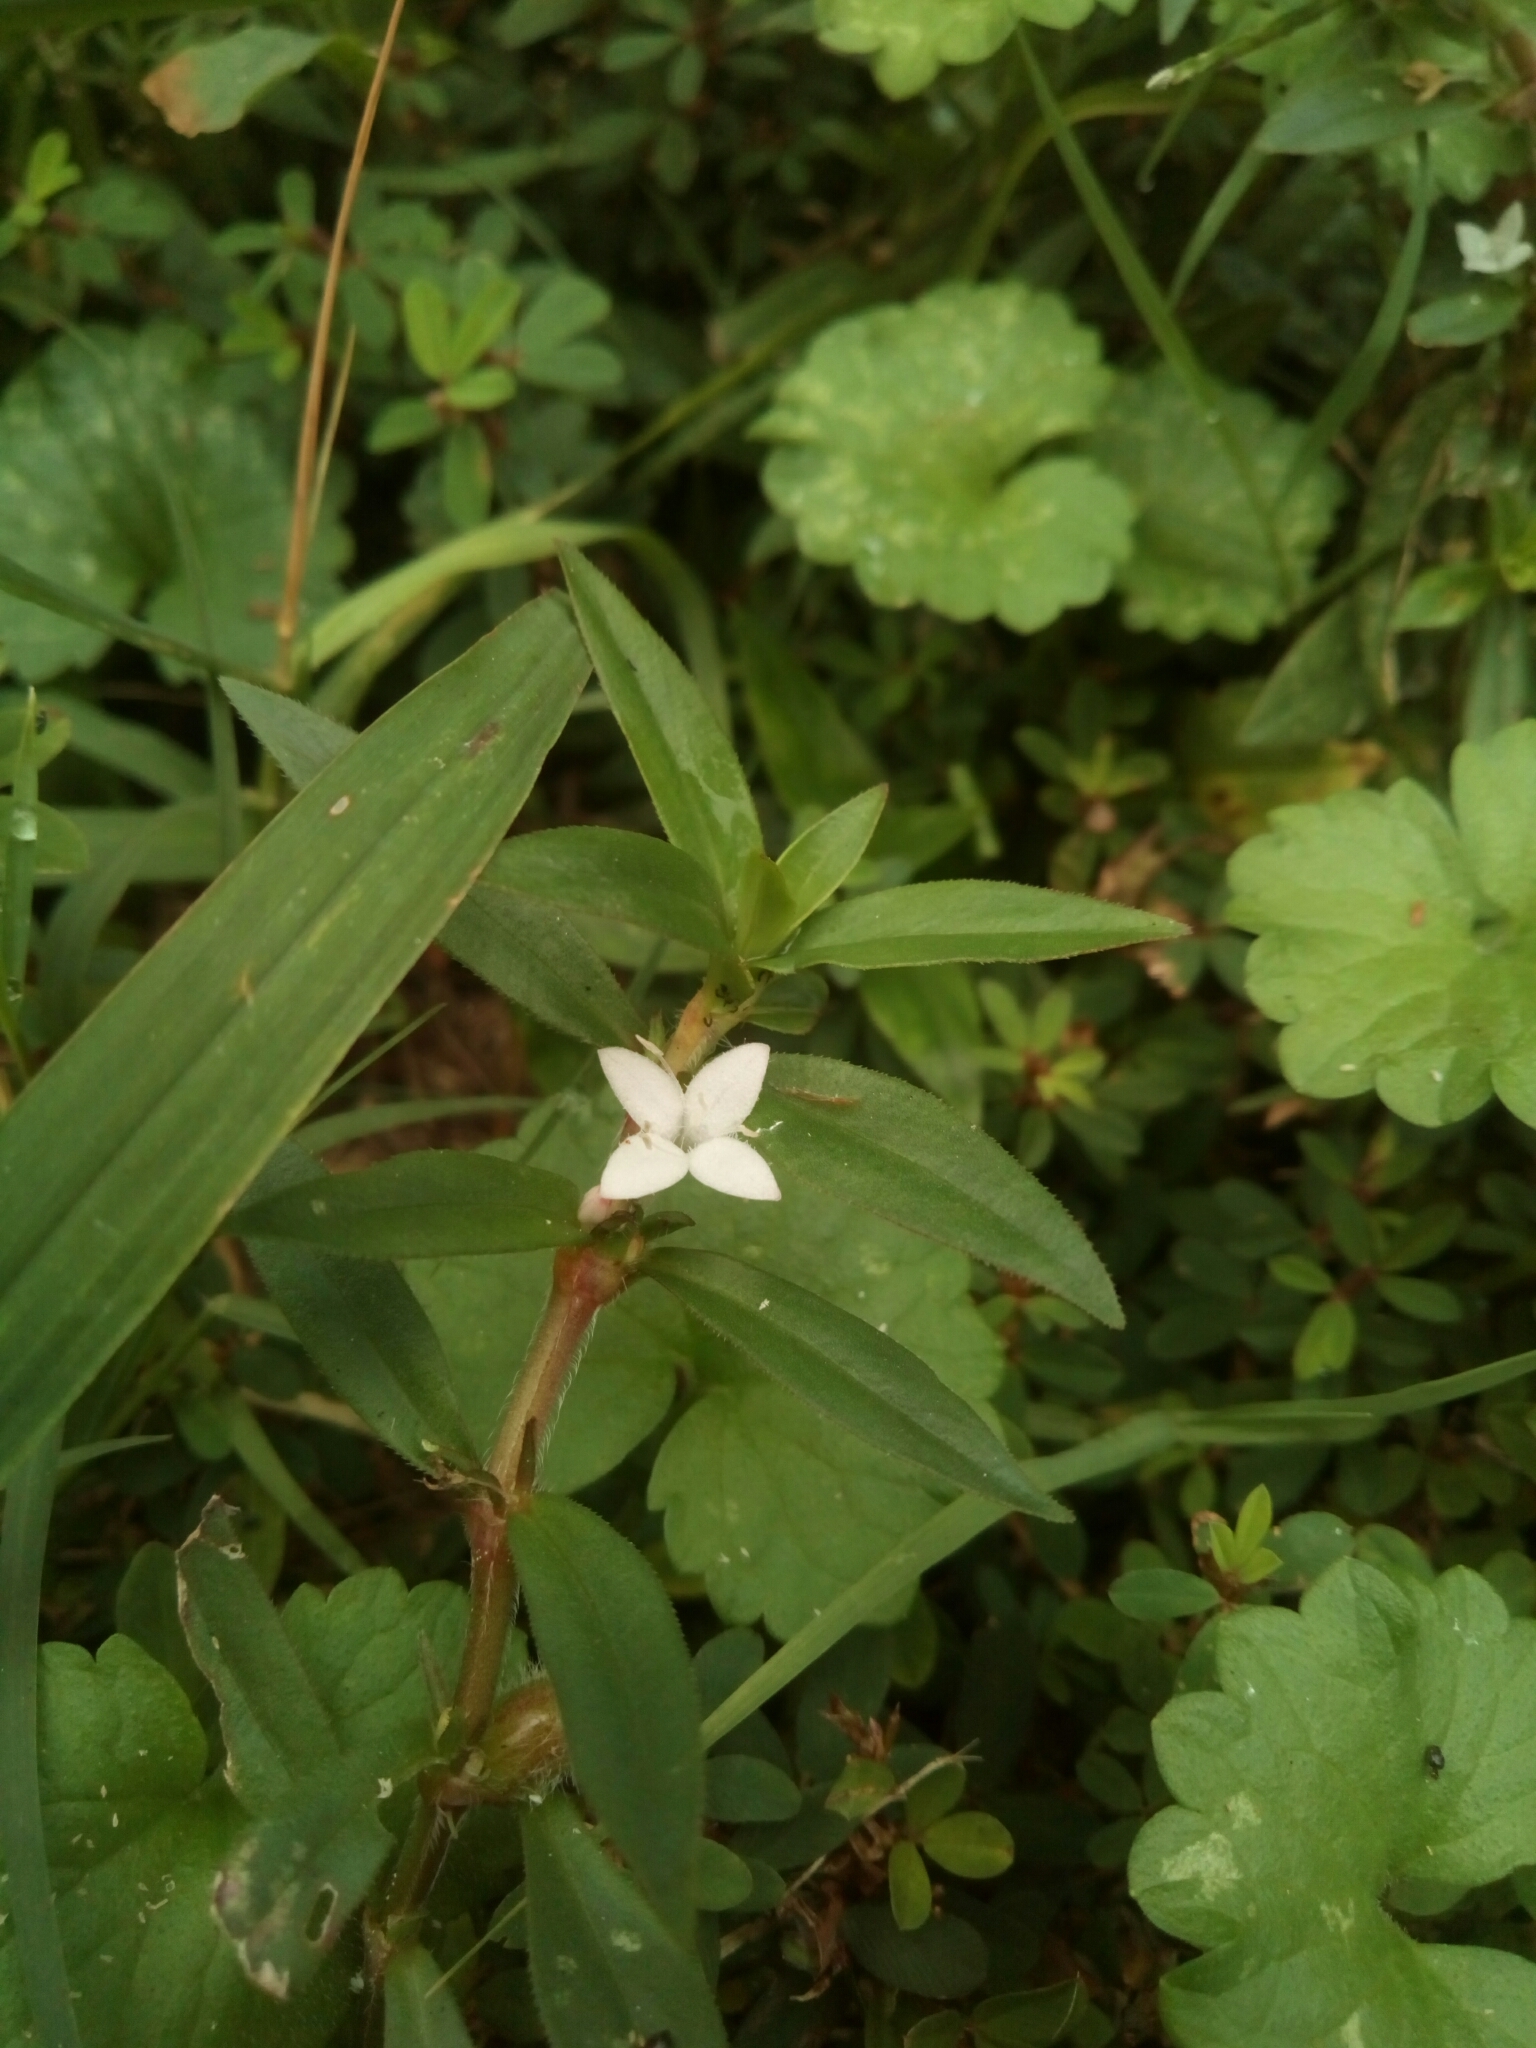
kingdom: Plantae
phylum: Tracheophyta
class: Magnoliopsida
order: Gentianales
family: Rubiaceae
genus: Diodia
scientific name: Diodia virginiana
